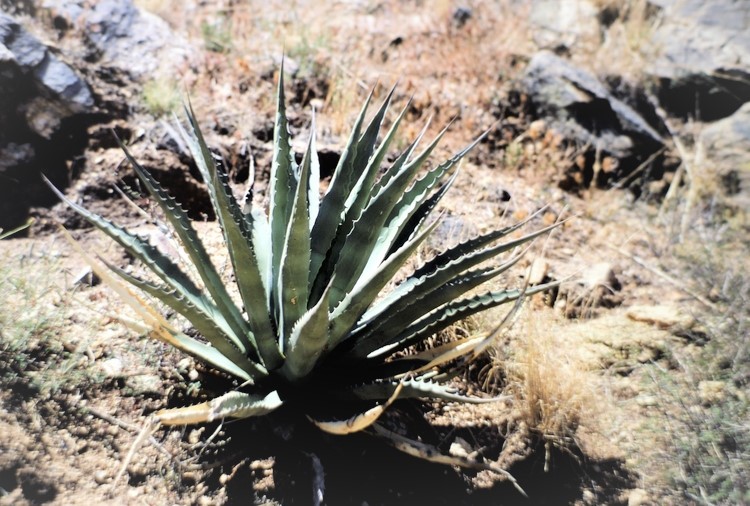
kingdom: Plantae
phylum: Tracheophyta
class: Liliopsida
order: Asparagales
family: Asparagaceae
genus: Agave
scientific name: Agave palmeri
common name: Palmer agave
